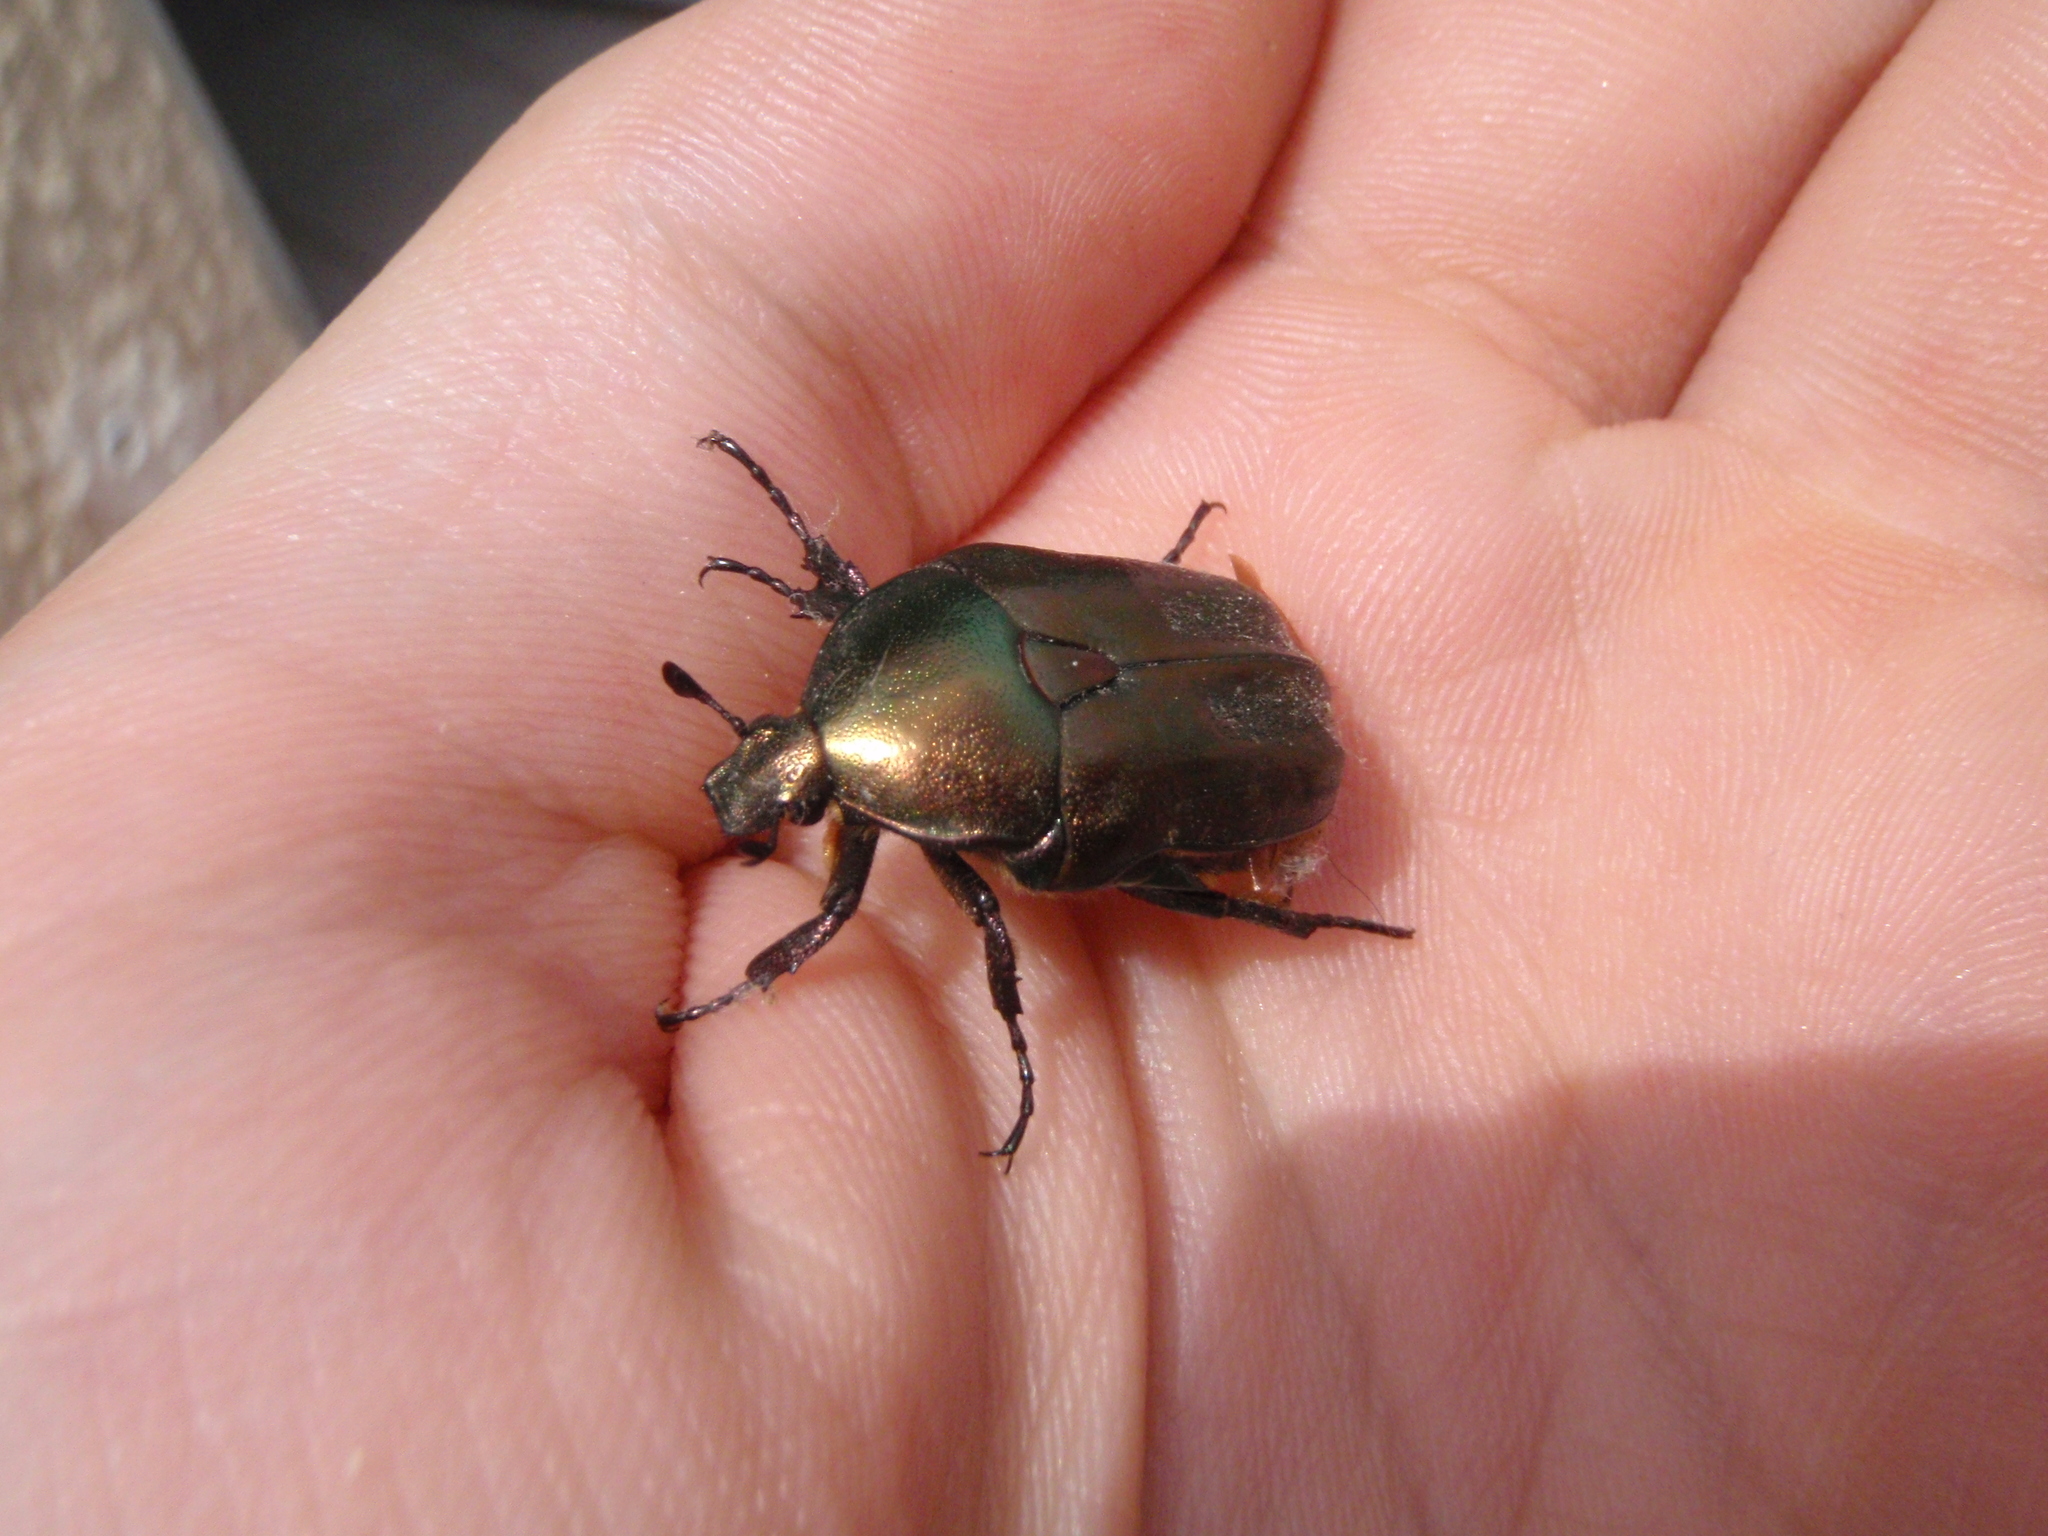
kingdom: Animalia
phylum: Arthropoda
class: Insecta
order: Coleoptera
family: Scarabaeidae
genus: Protaetia
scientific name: Protaetia cuprea
